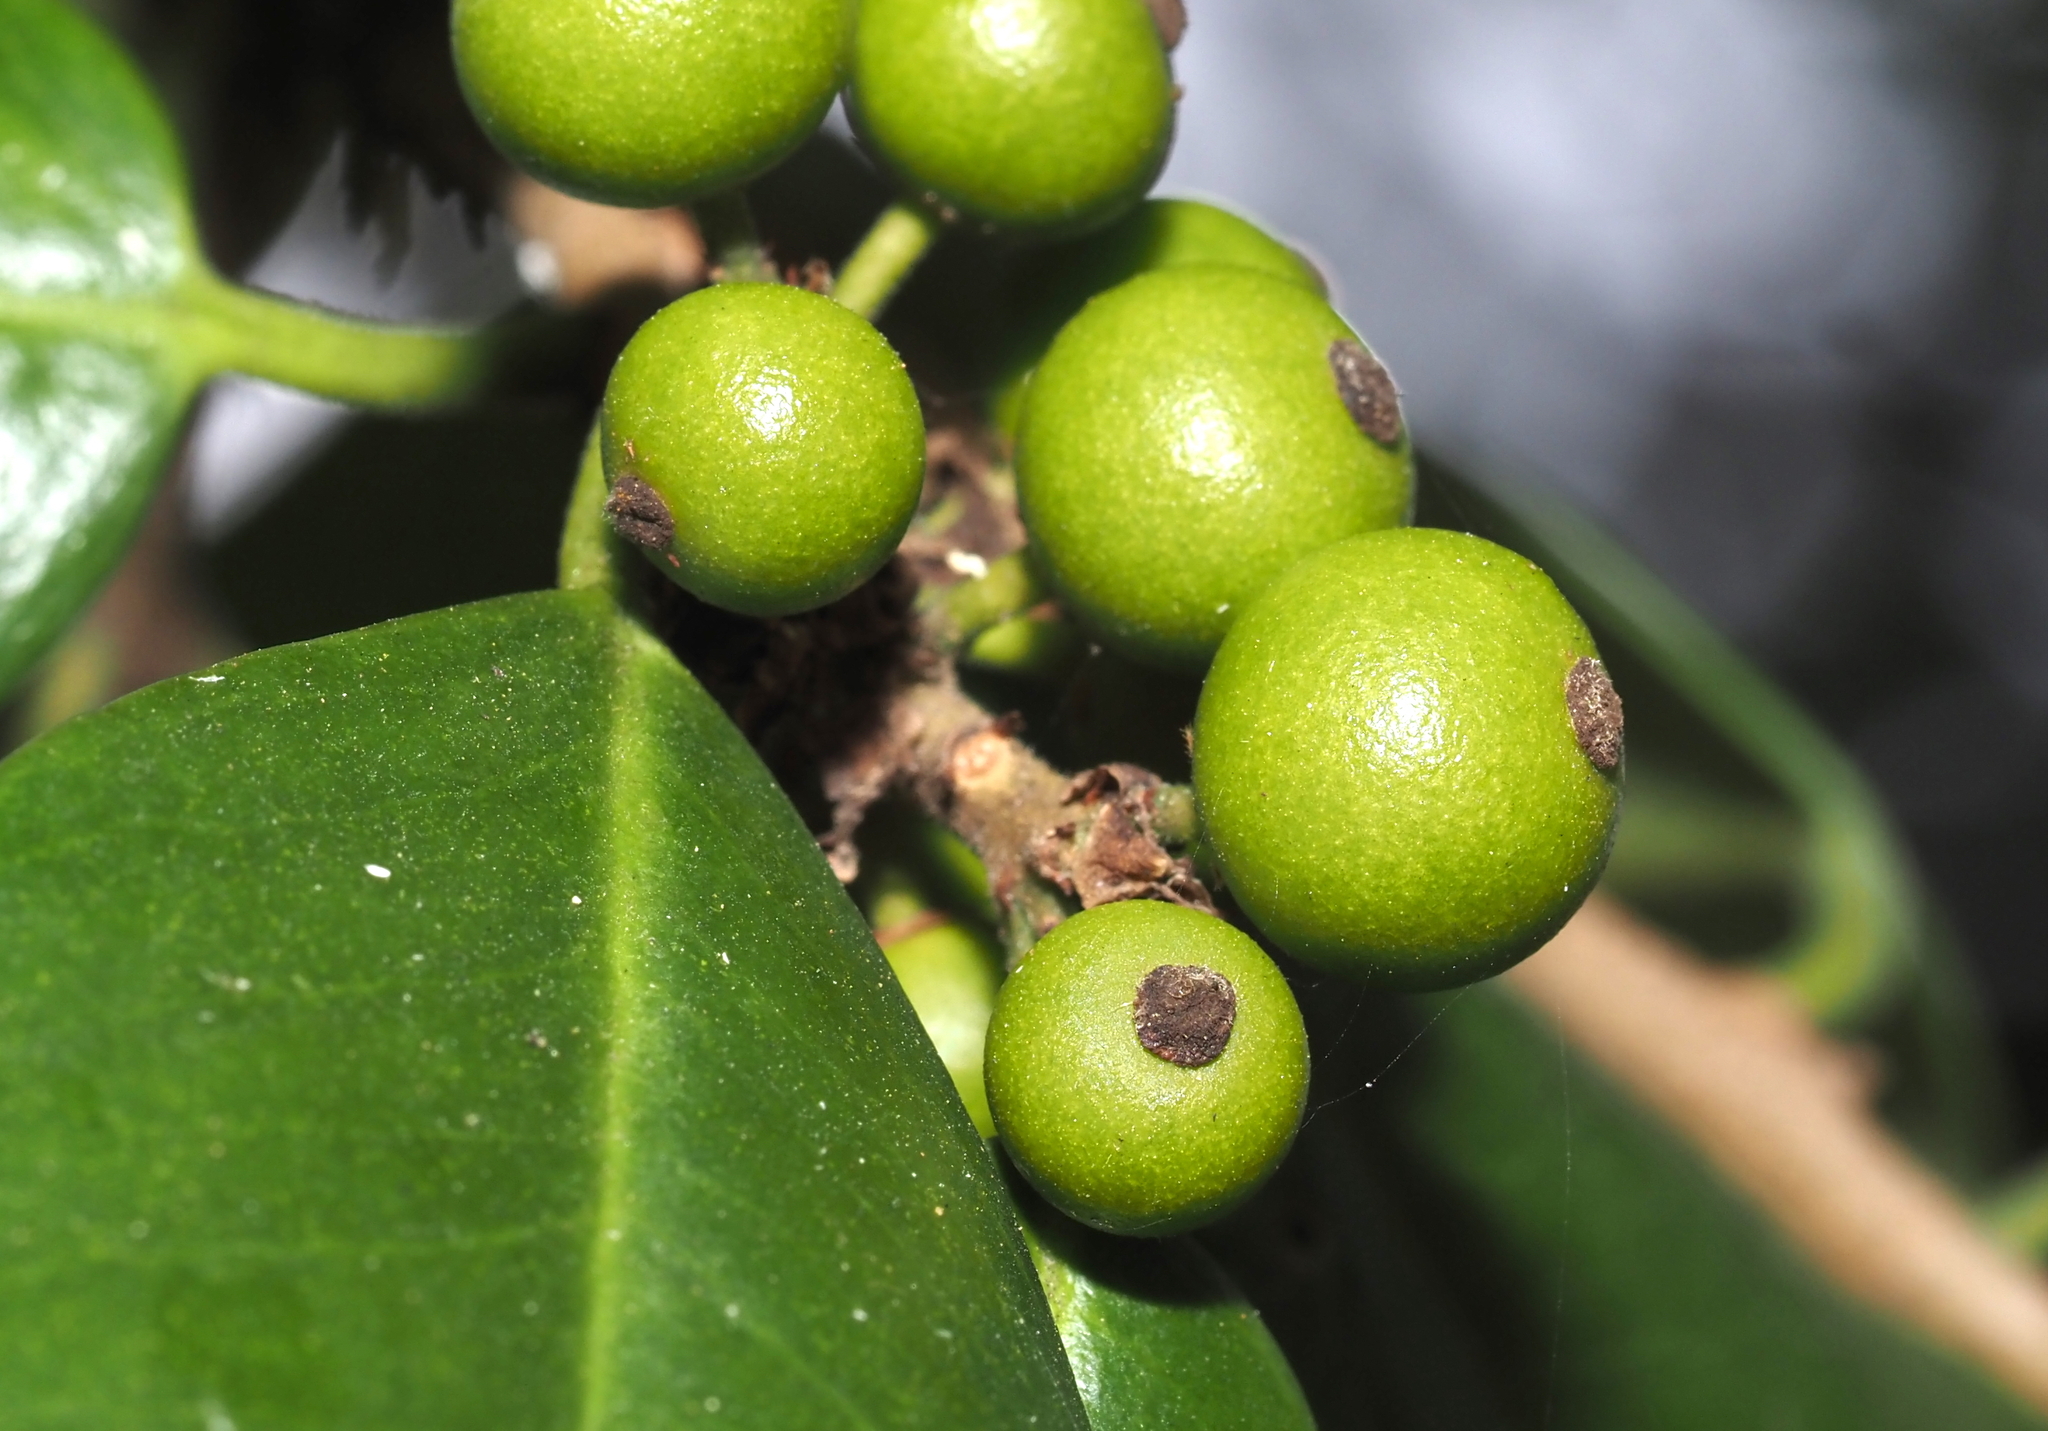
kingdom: Animalia
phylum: Arthropoda
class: Insecta
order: Diptera
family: Cecidomyiidae
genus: Asphondylia
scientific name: Asphondylia ilicicola
